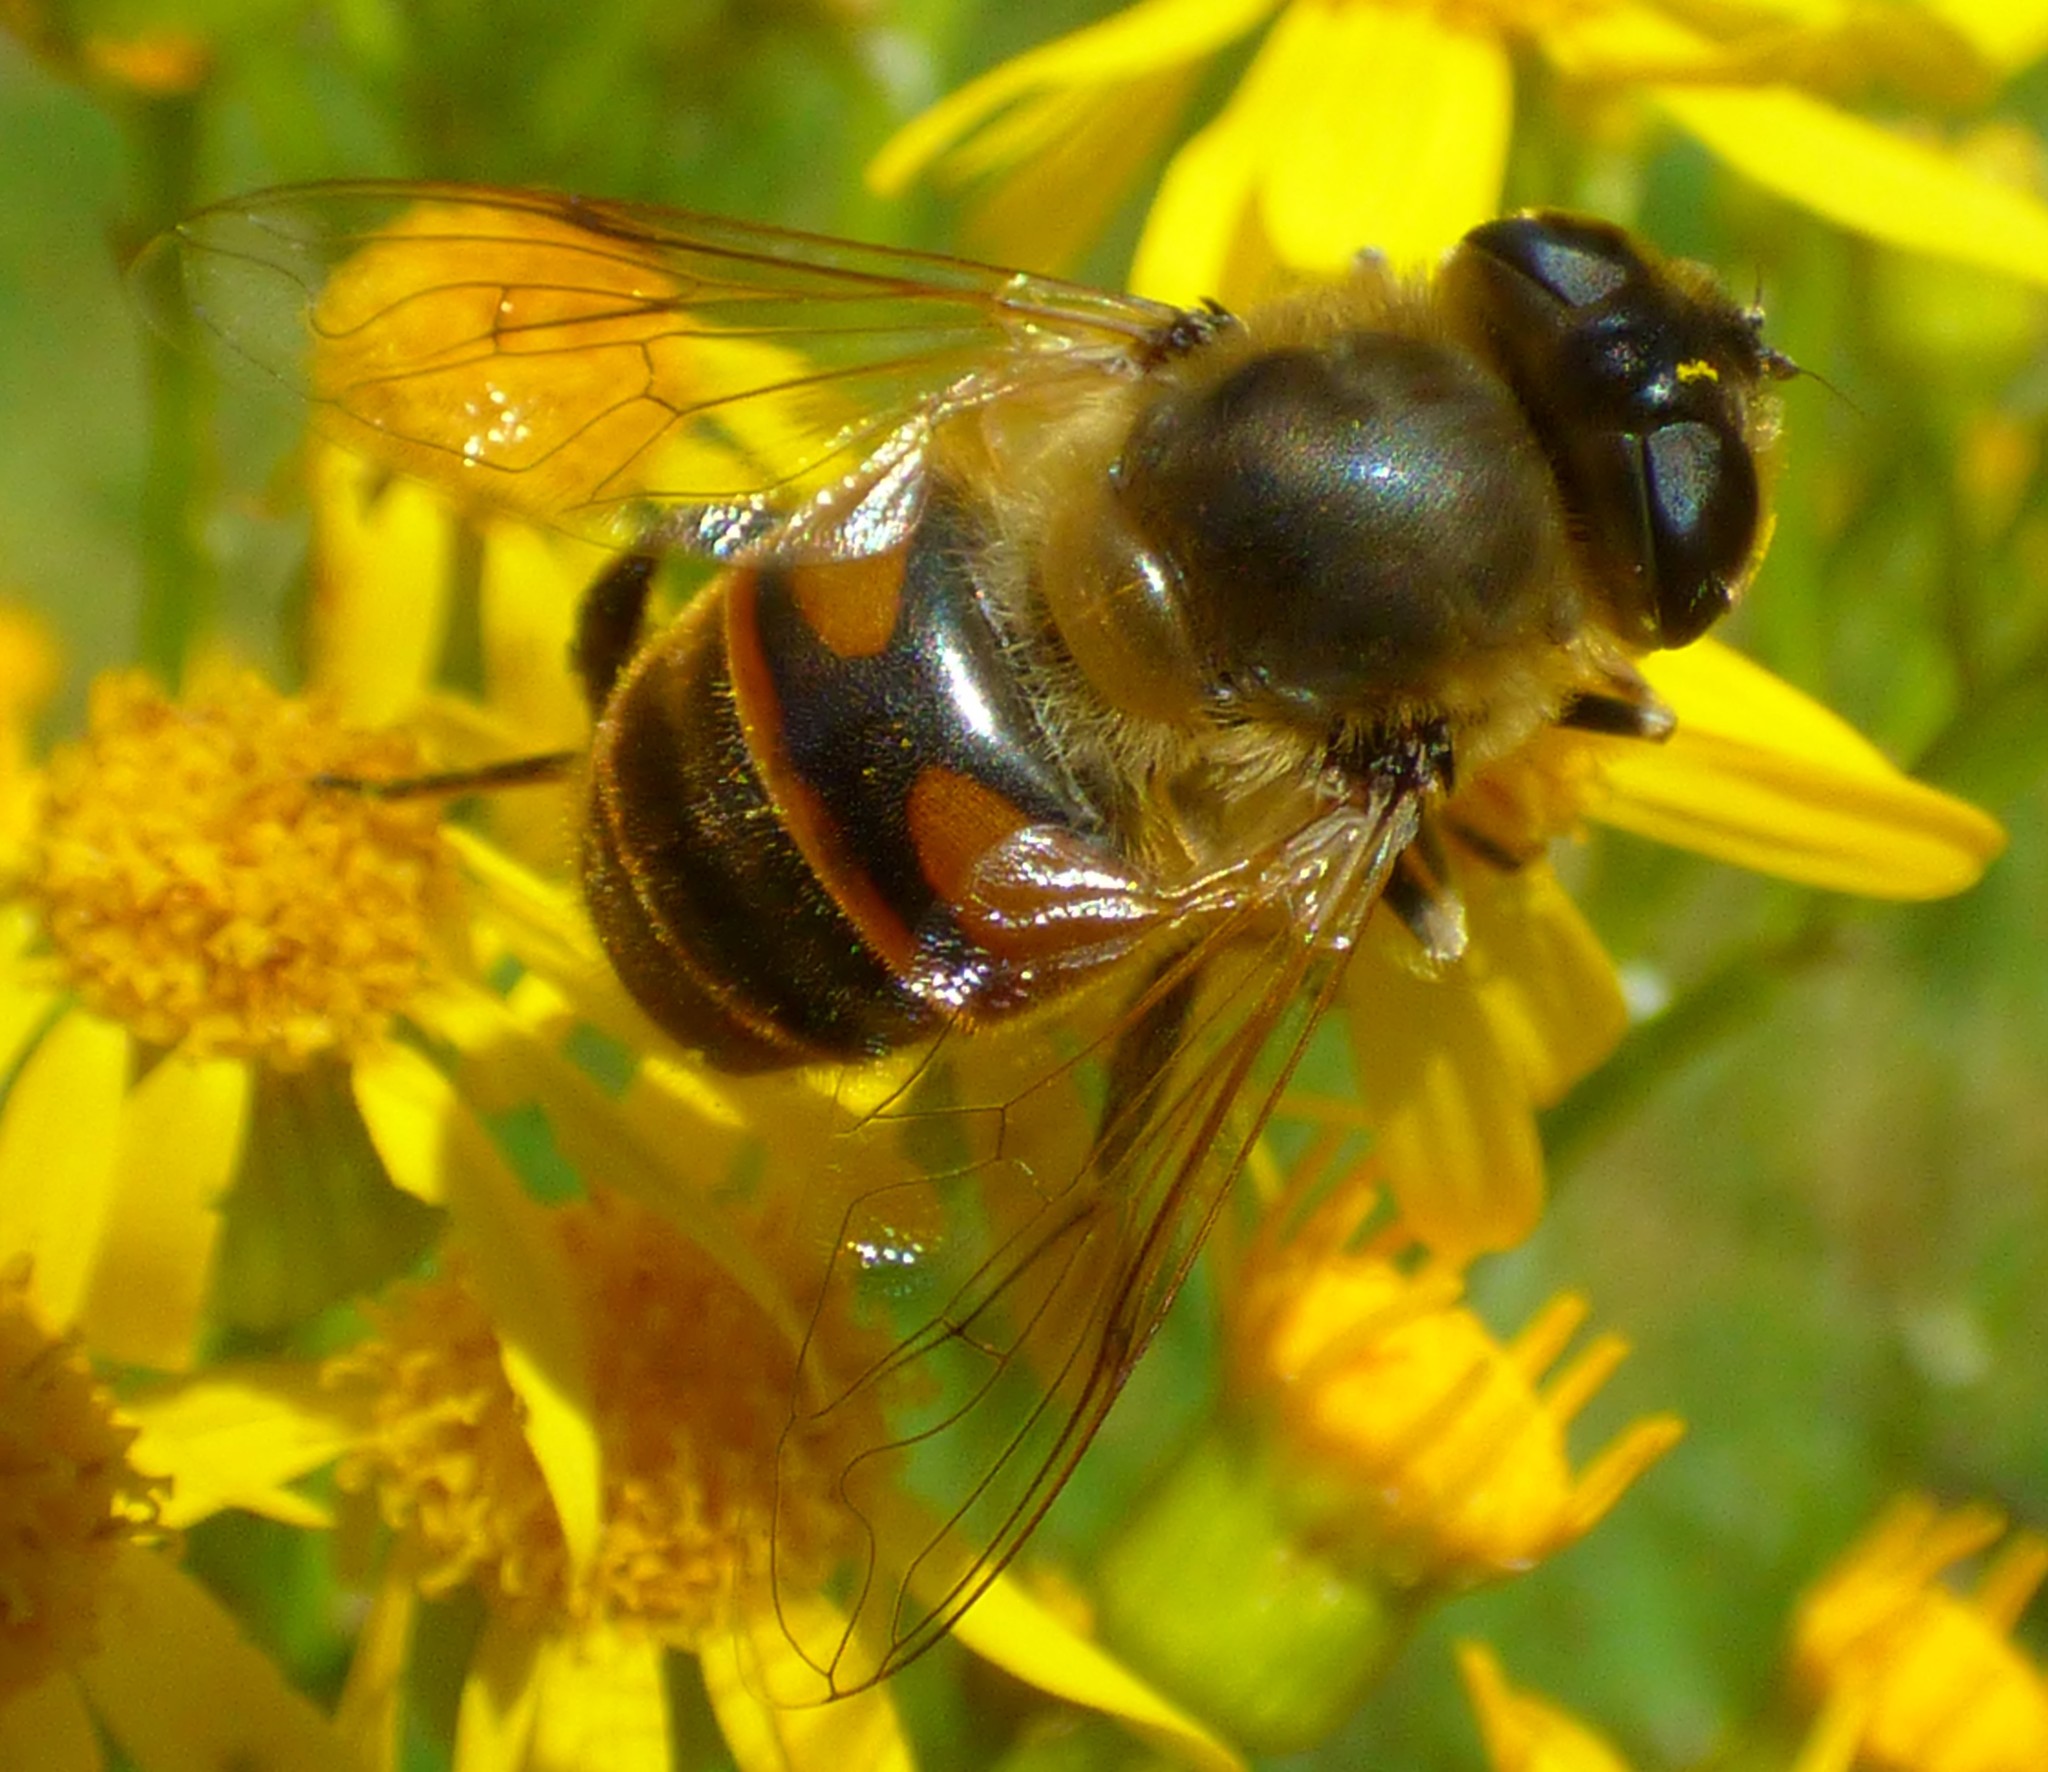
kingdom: Animalia
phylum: Arthropoda
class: Insecta
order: Diptera
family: Syrphidae
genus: Eristalis
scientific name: Eristalis tenax
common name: Drone fly
